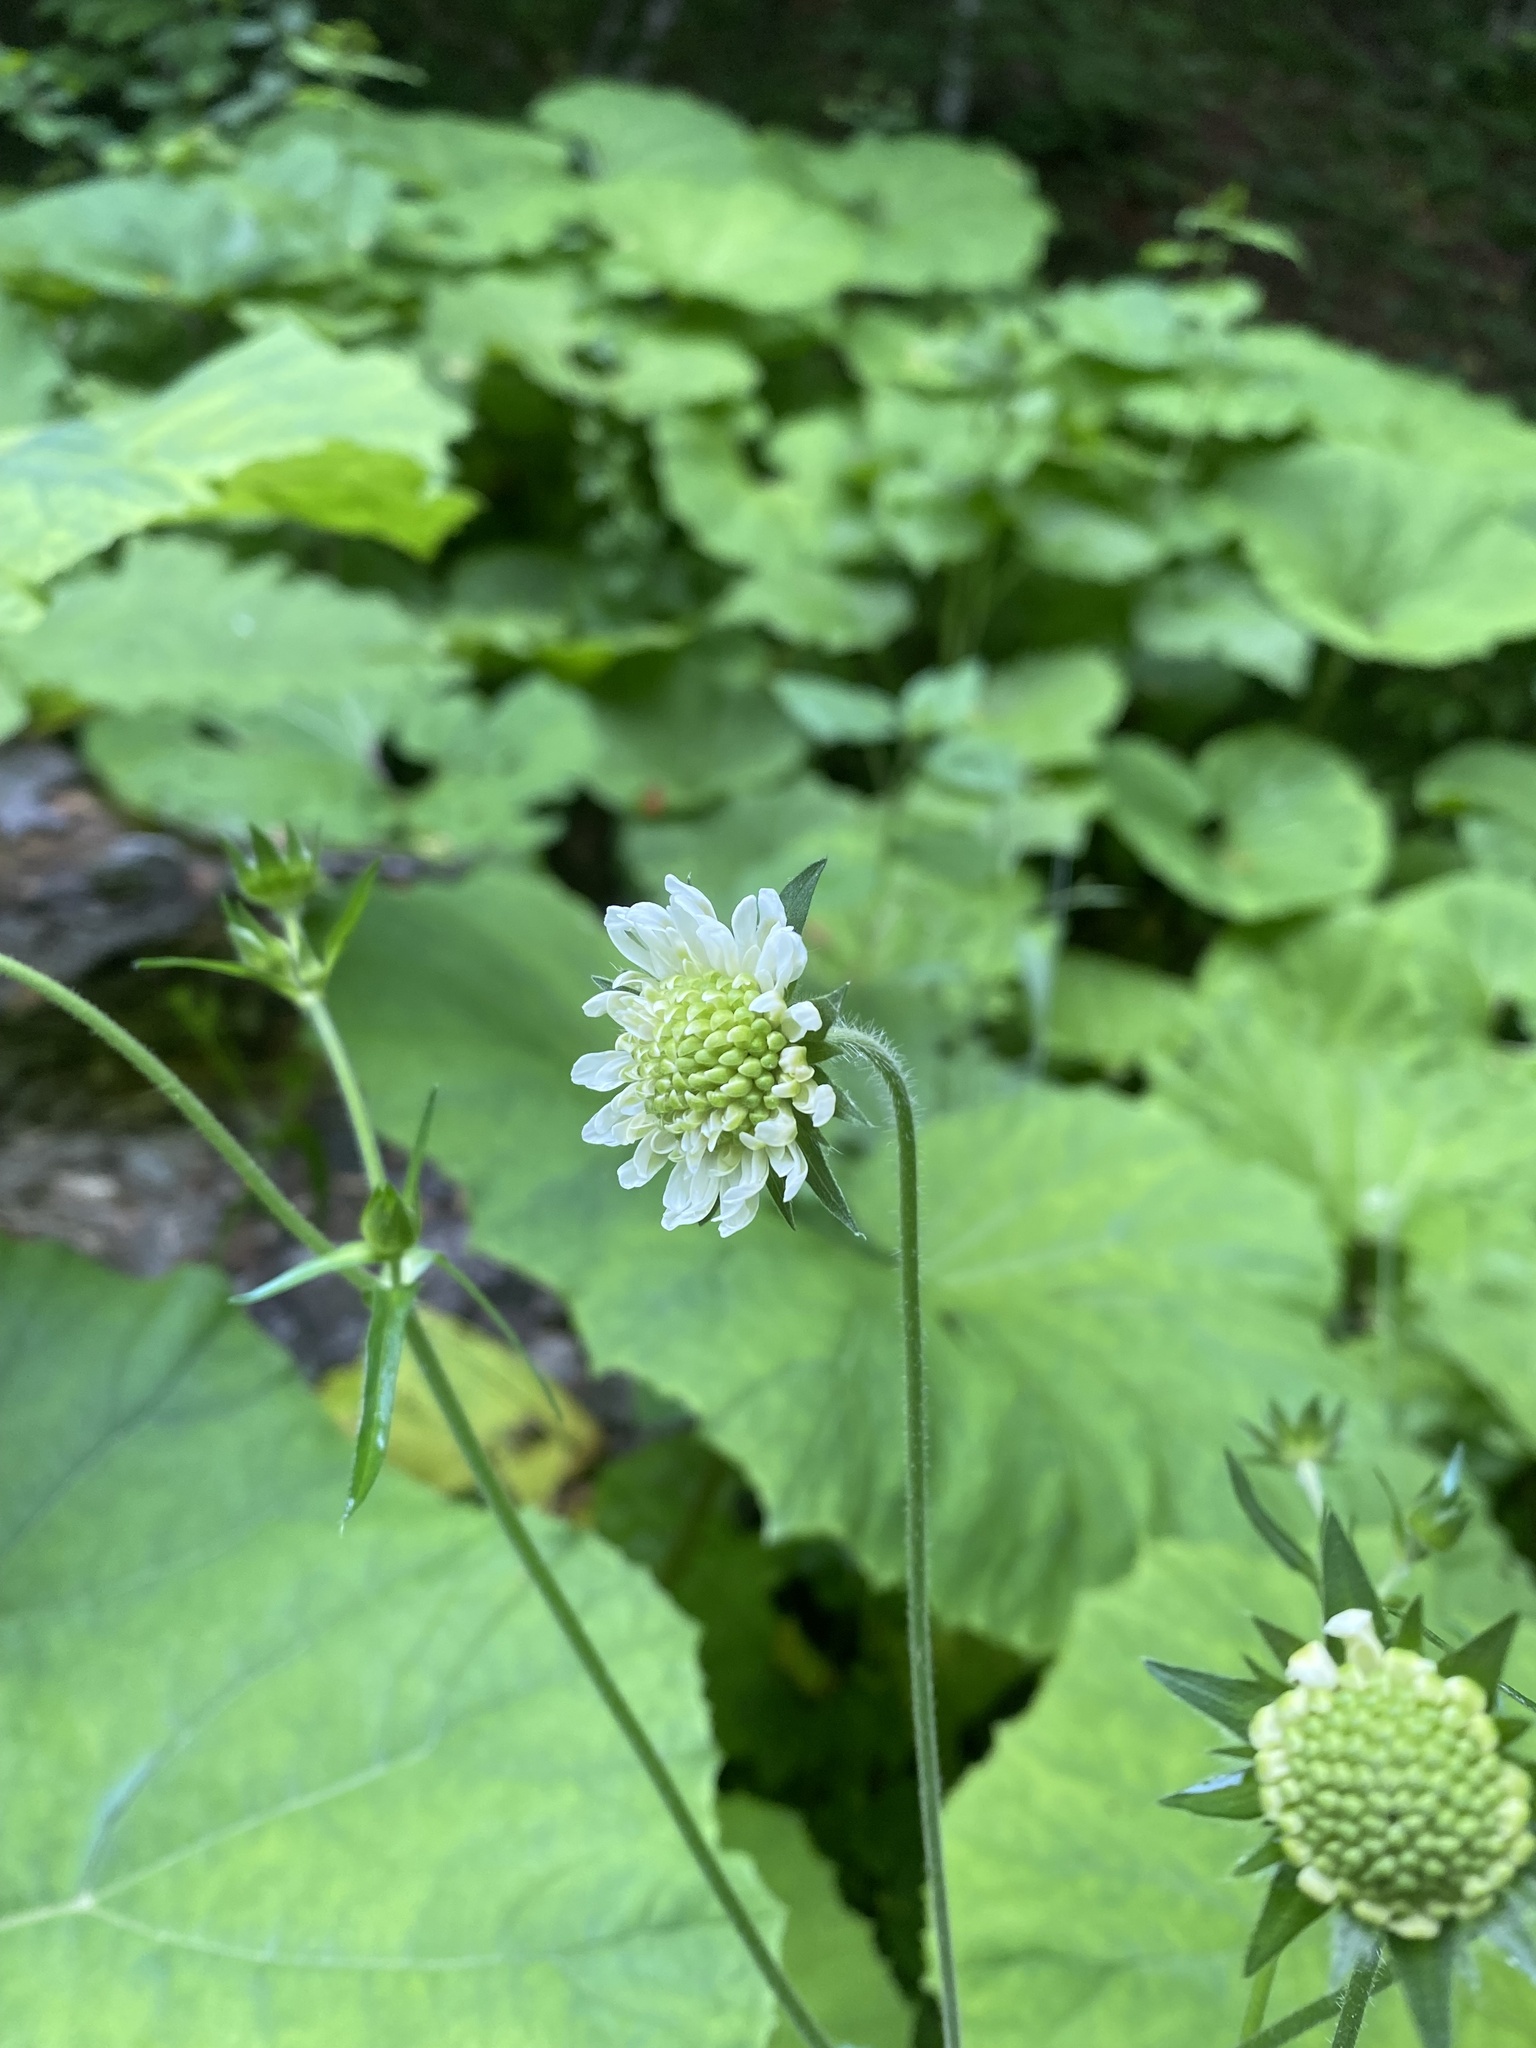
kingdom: Plantae
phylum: Tracheophyta
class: Magnoliopsida
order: Dipsacales
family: Caprifoliaceae
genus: Knautia
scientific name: Knautia involucrata
